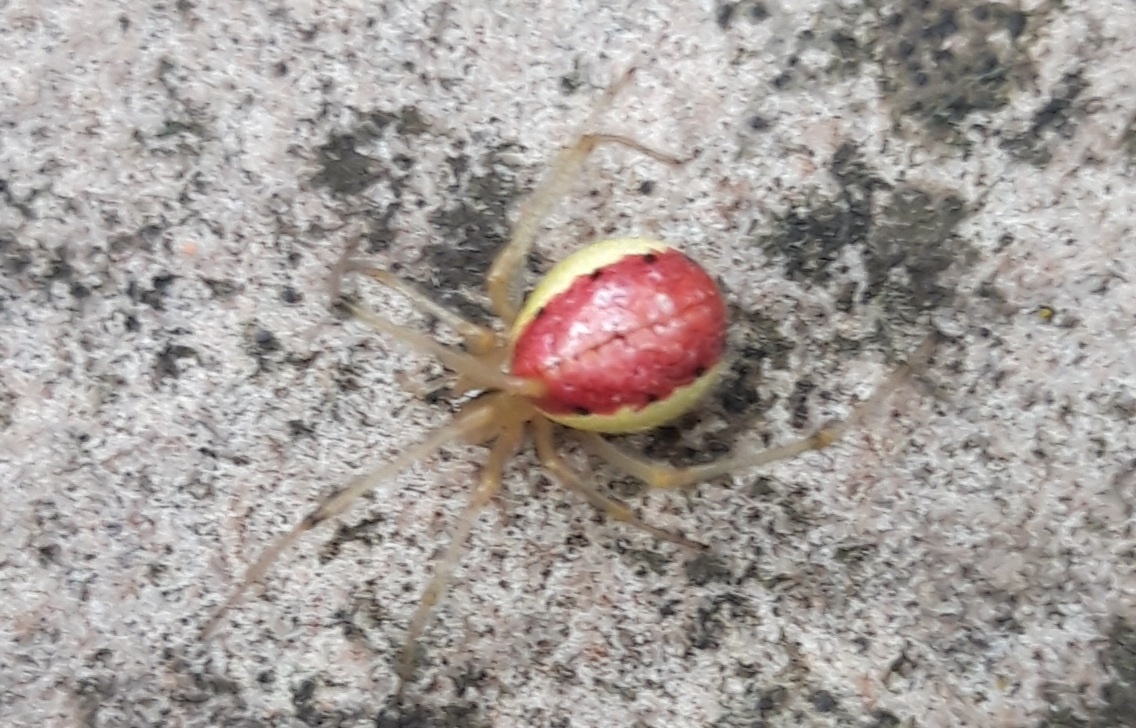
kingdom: Animalia
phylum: Arthropoda
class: Arachnida
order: Araneae
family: Theridiidae
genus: Enoplognatha
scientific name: Enoplognatha
